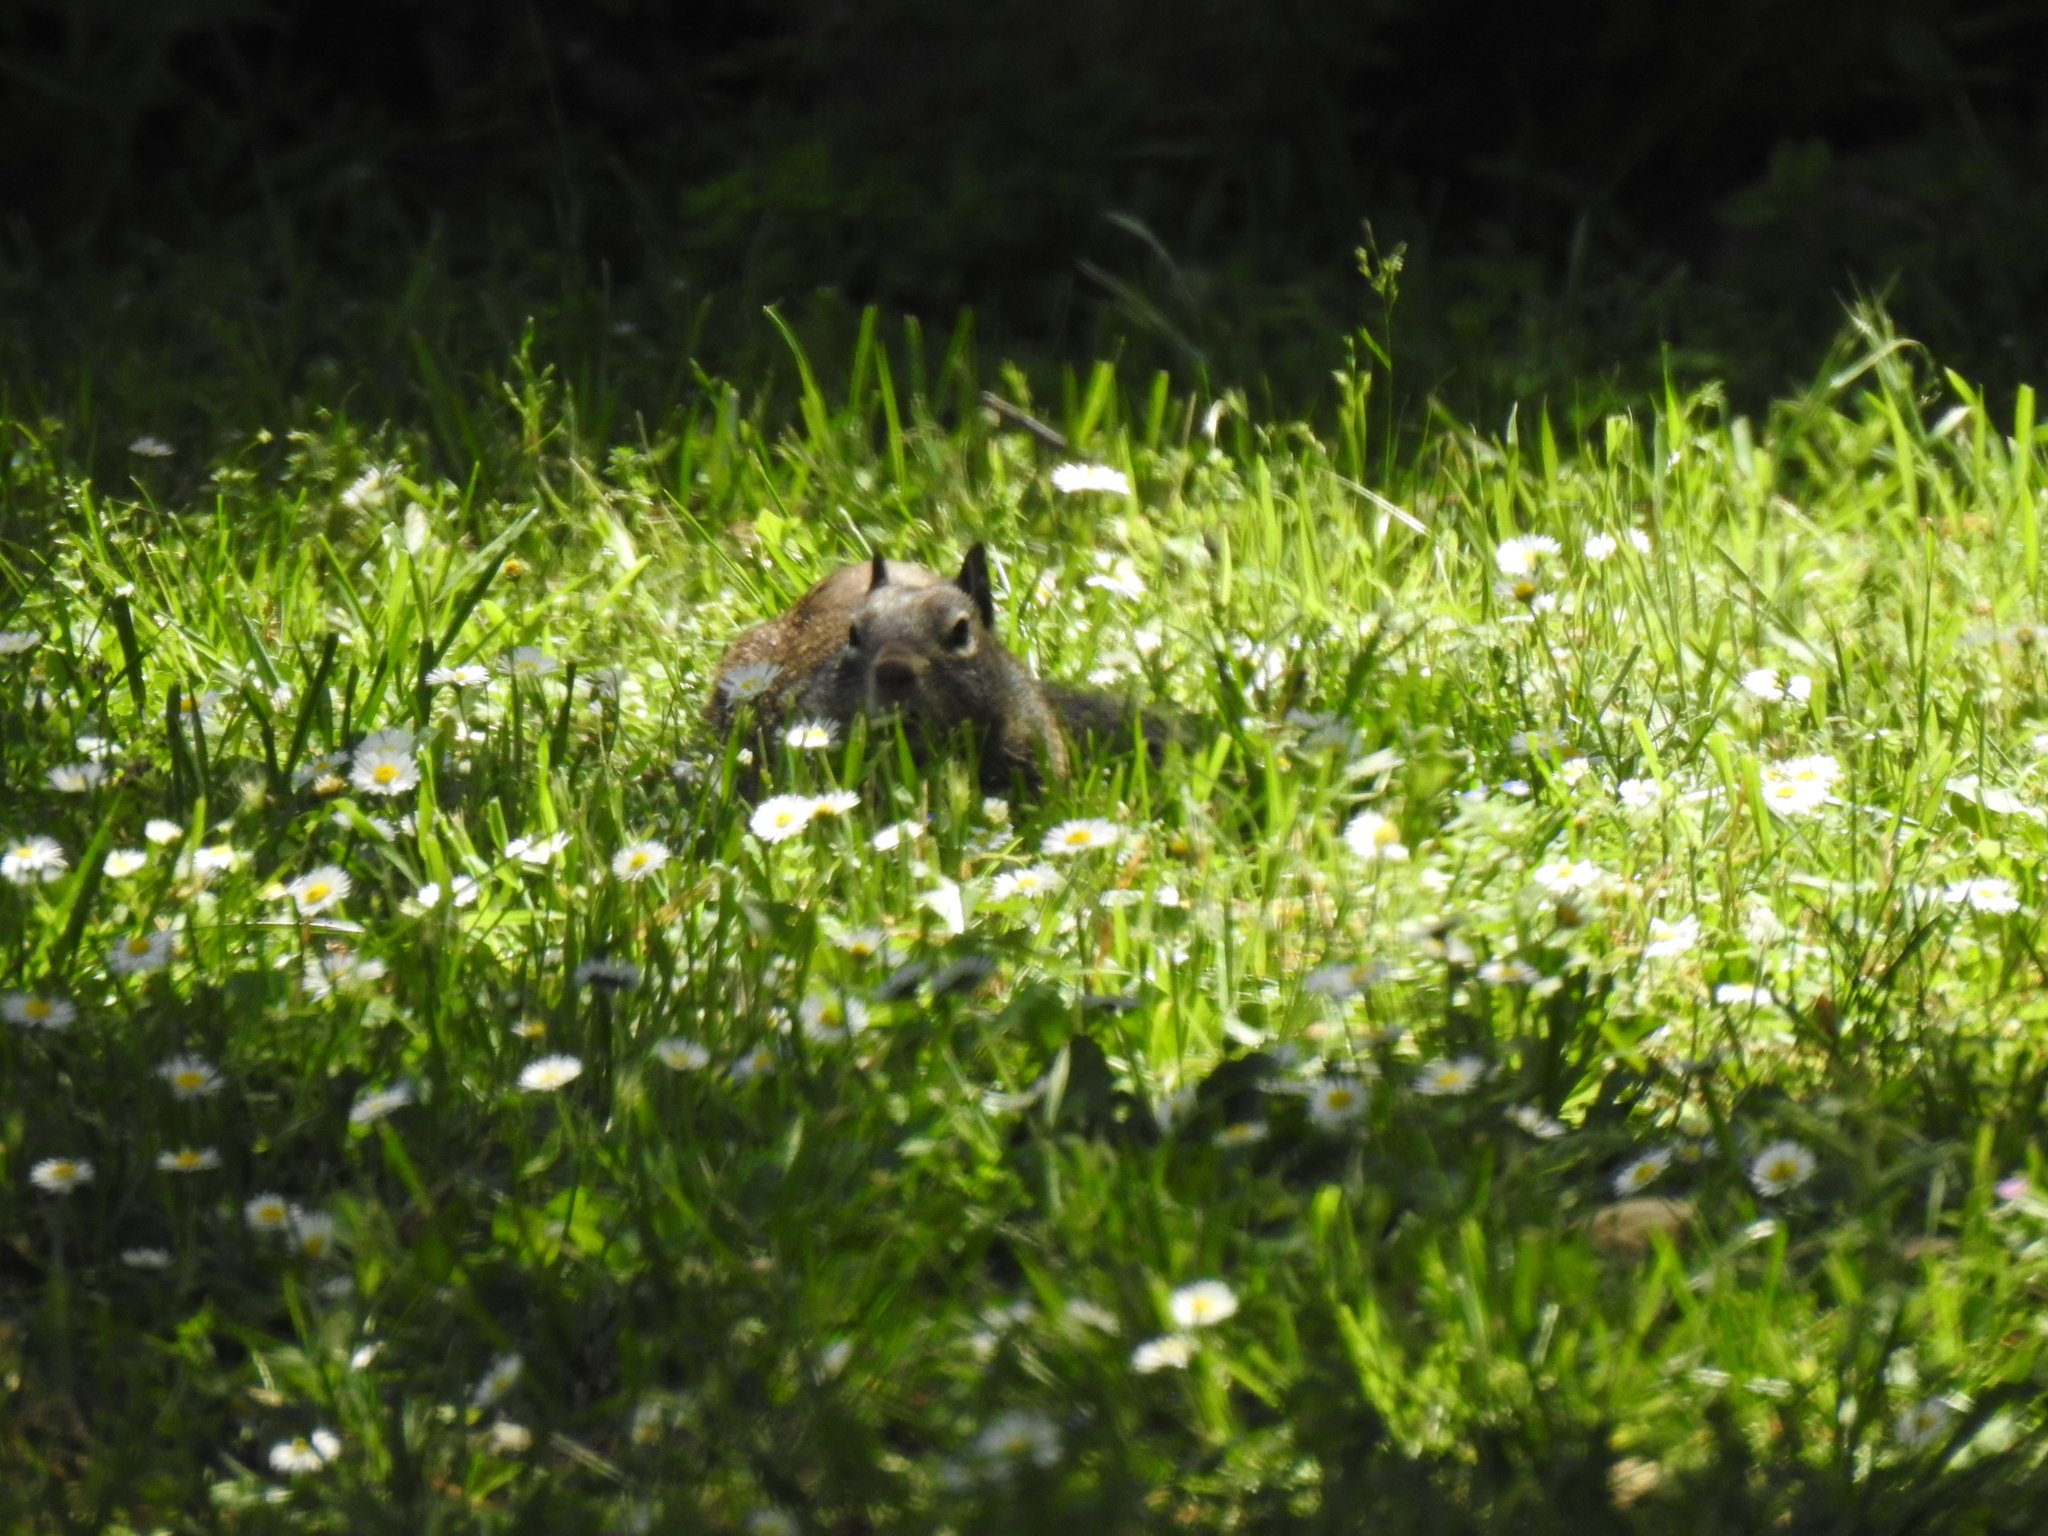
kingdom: Animalia
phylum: Chordata
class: Mammalia
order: Rodentia
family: Sciuridae
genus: Otospermophilus
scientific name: Otospermophilus beecheyi
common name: California ground squirrel
